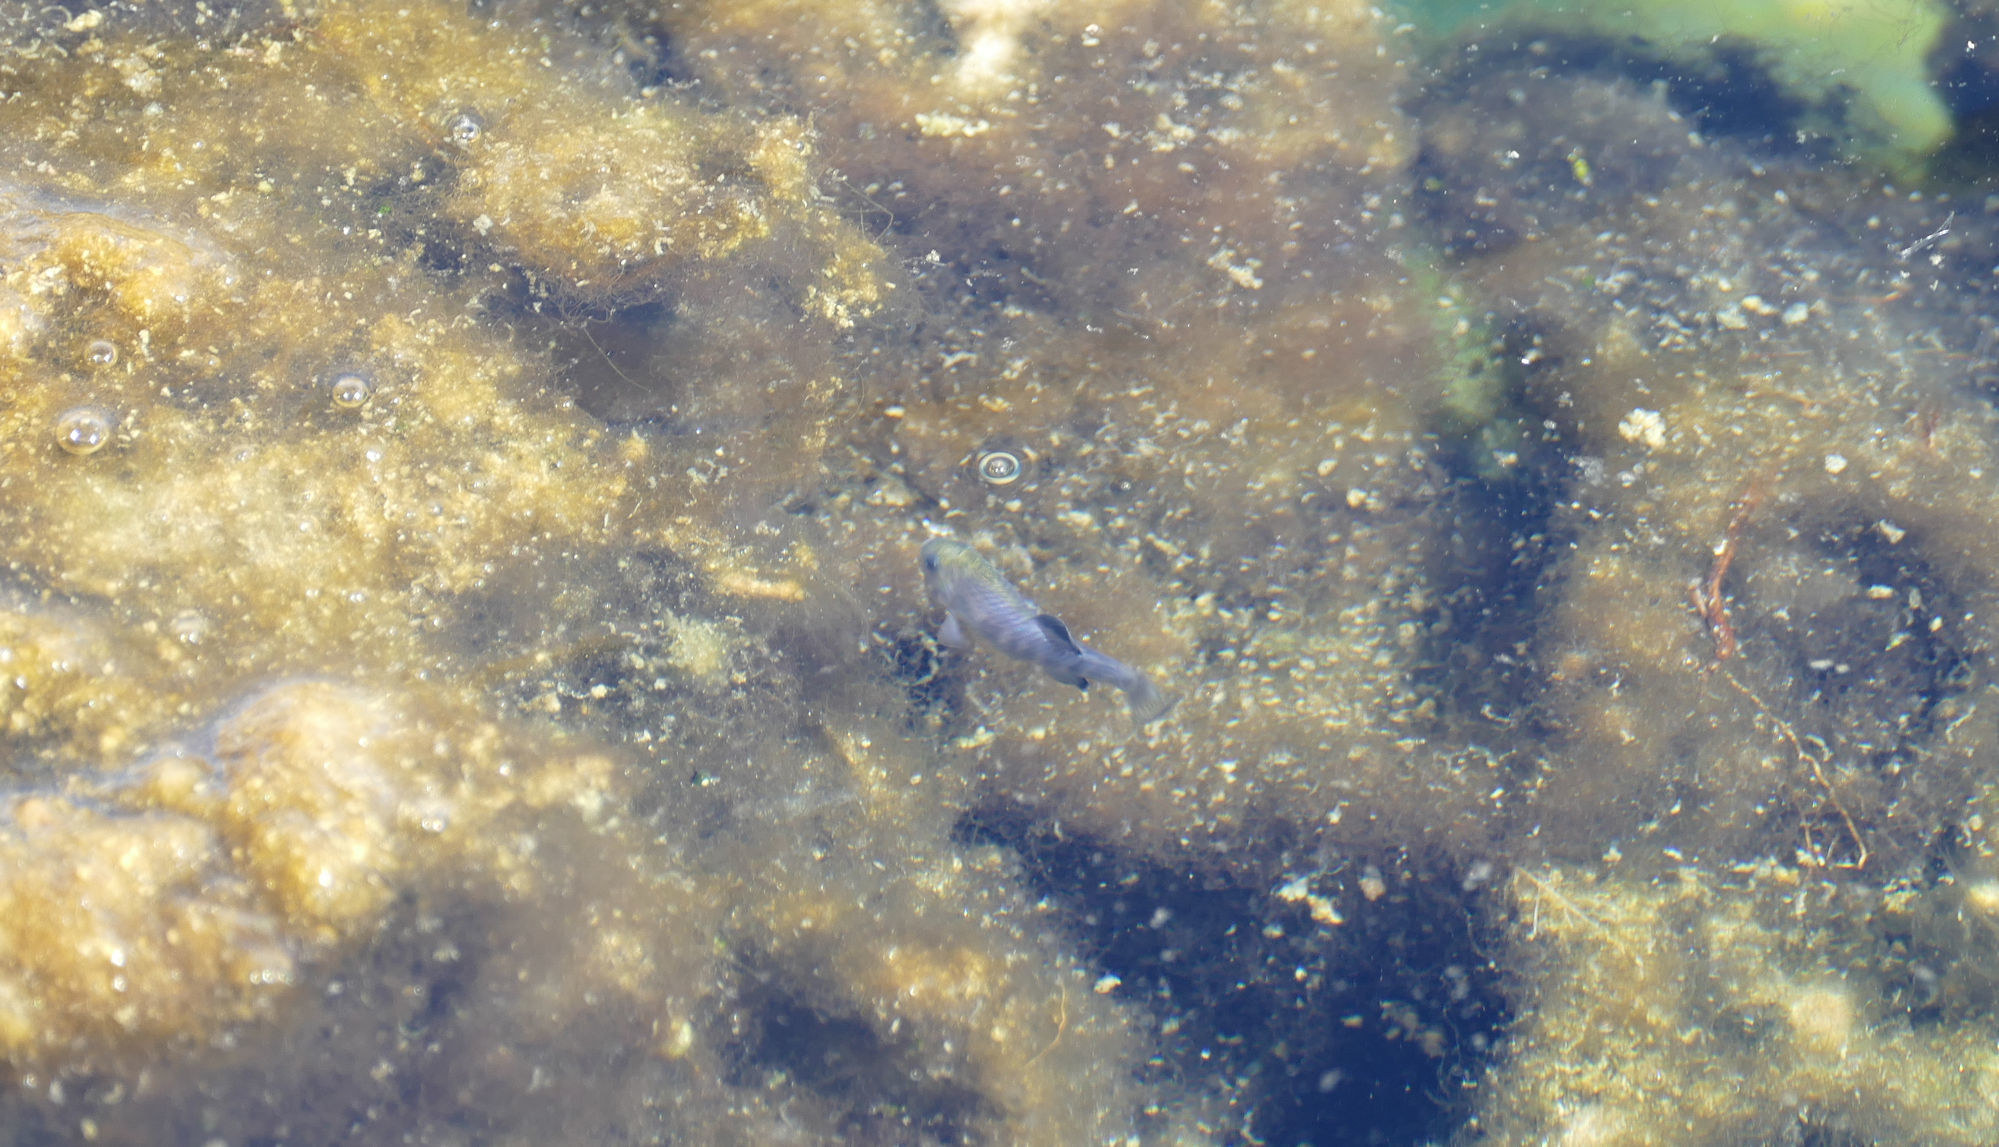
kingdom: Animalia
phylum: Chordata
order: Cyprinodontiformes
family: Cyprinodontidae
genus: Cyprinodon
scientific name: Cyprinodon nevadensis
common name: Amargosa pupfish
